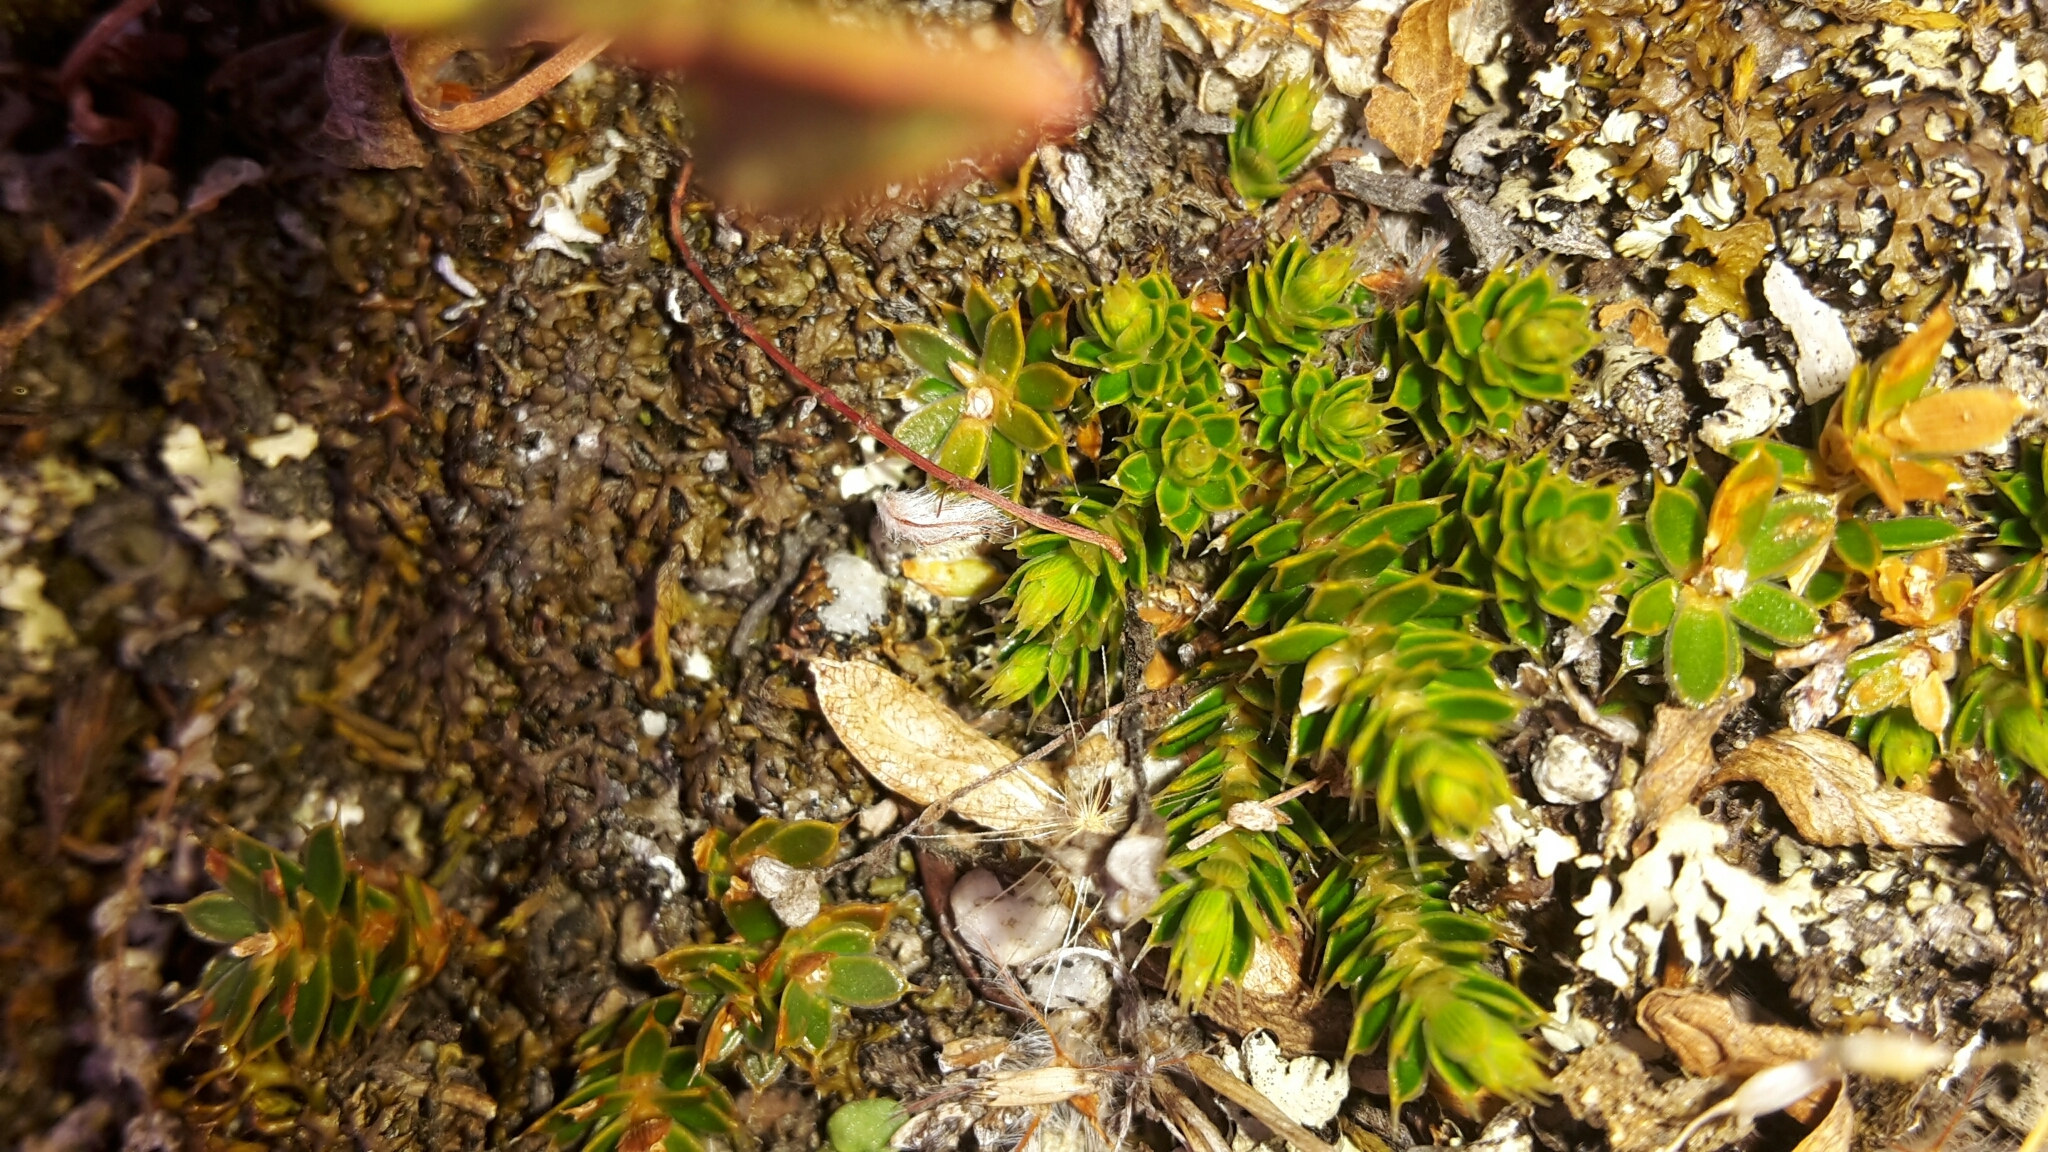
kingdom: Plantae
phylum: Tracheophyta
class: Magnoliopsida
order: Ericales
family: Ericaceae
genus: Styphelia
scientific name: Styphelia nesophila
